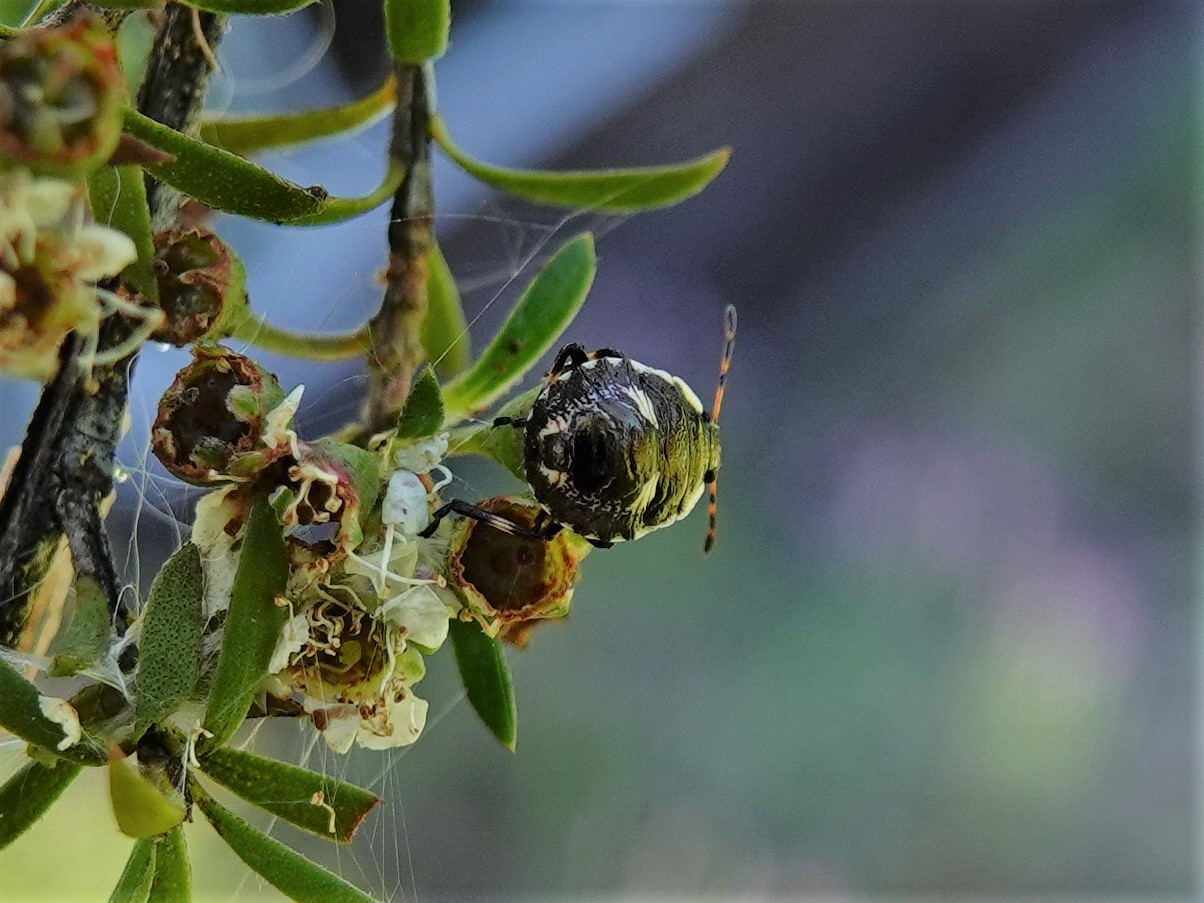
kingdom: Animalia
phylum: Arthropoda
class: Insecta
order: Hemiptera
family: Pentatomidae
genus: Cermatulus
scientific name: Cermatulus nasalis
